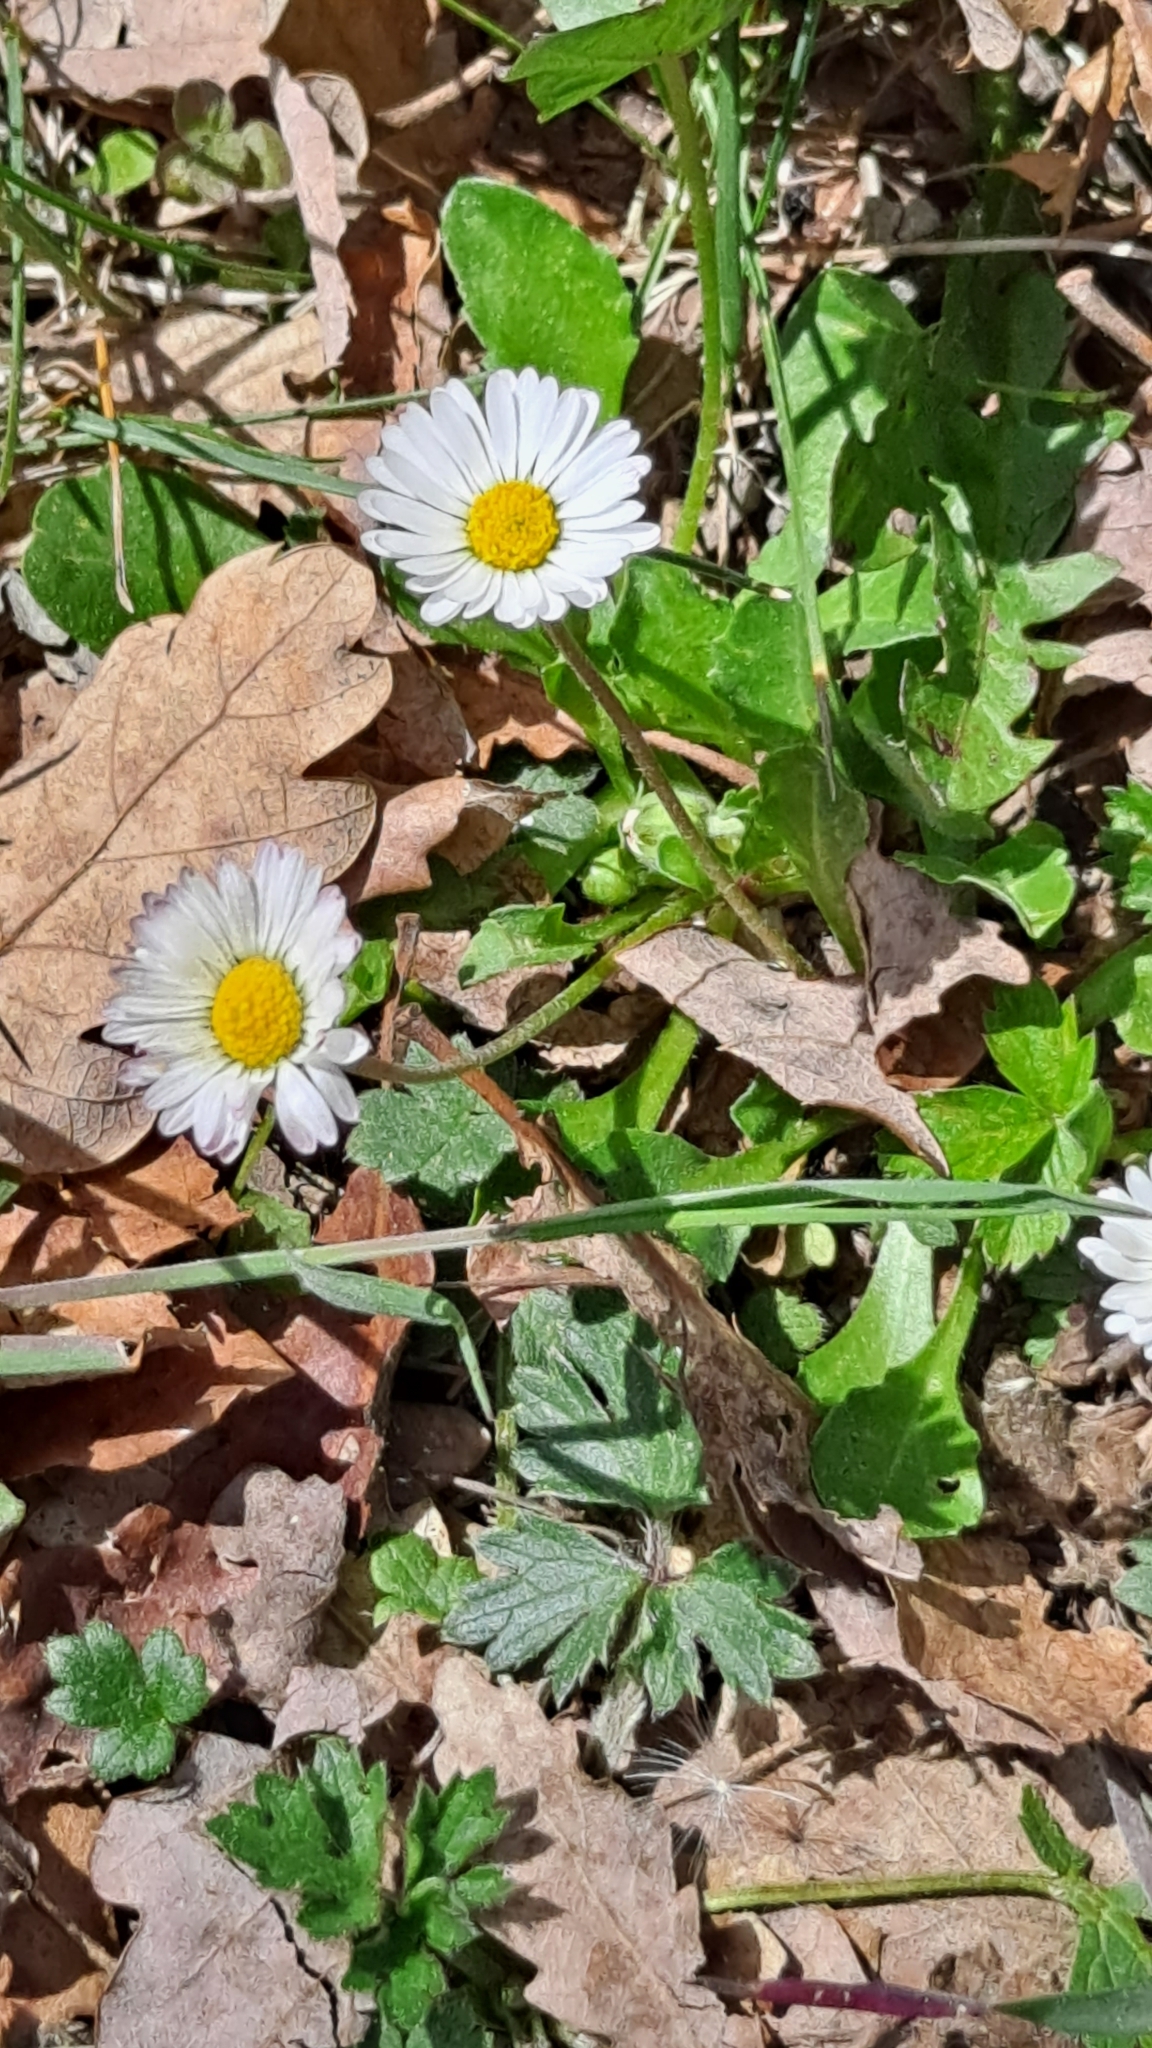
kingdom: Plantae
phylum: Tracheophyta
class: Magnoliopsida
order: Asterales
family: Asteraceae
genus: Bellis
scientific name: Bellis perennis
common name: Lawndaisy
